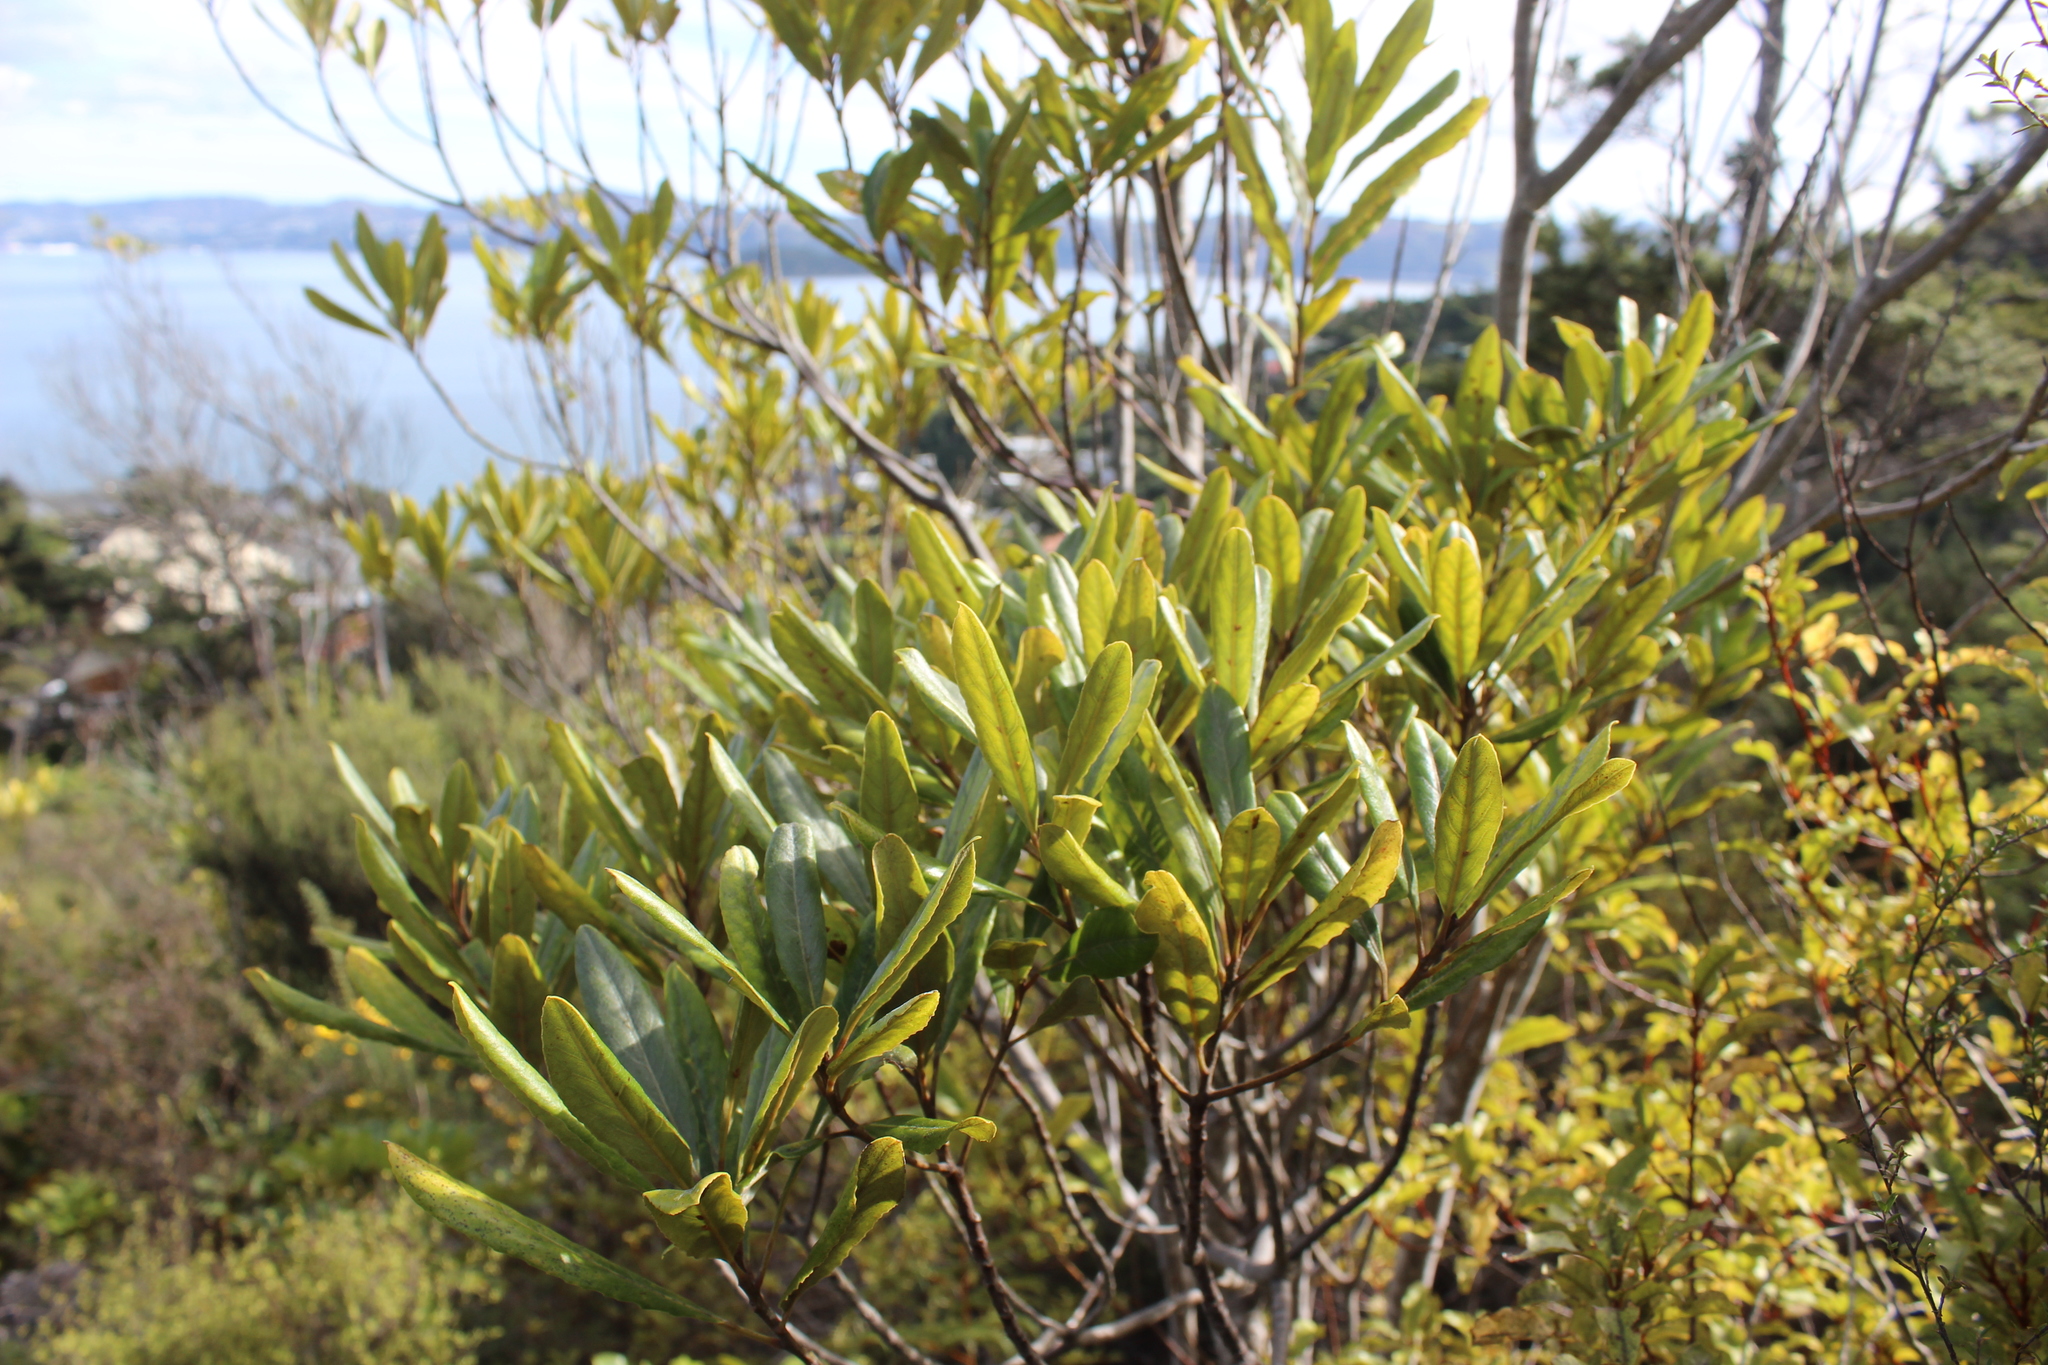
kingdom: Plantae
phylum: Tracheophyta
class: Magnoliopsida
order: Oxalidales
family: Elaeocarpaceae
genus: Elaeocarpus
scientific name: Elaeocarpus dentatus
